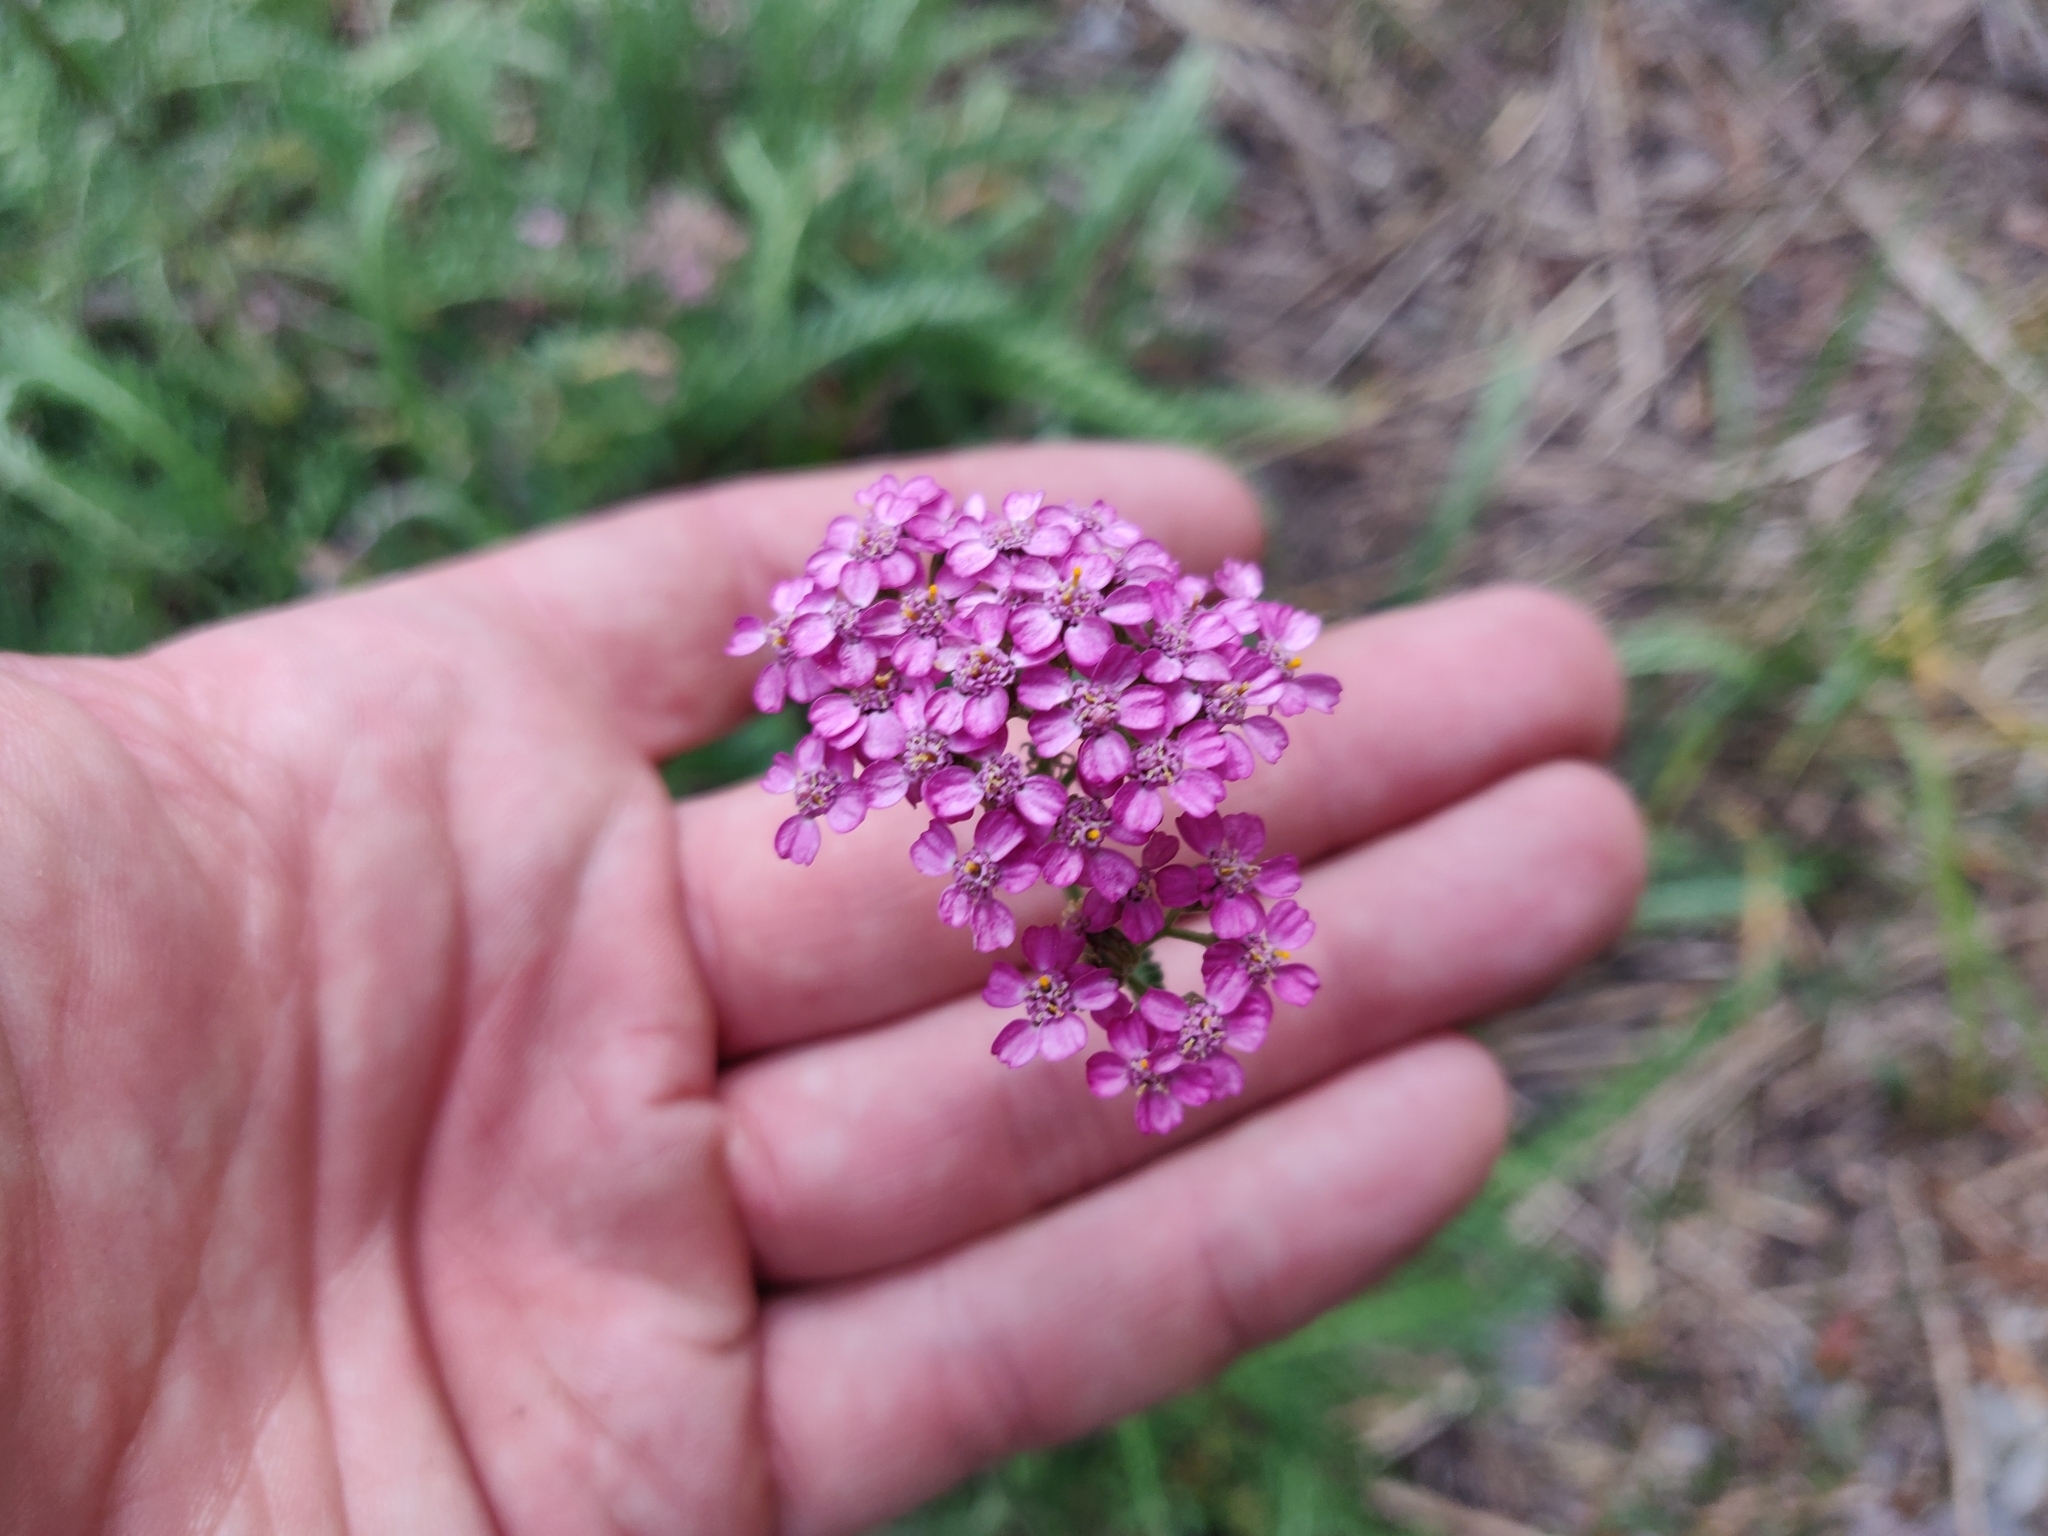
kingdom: Plantae
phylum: Tracheophyta
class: Magnoliopsida
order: Asterales
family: Asteraceae
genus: Achillea
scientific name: Achillea millefolium
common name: Yarrow
